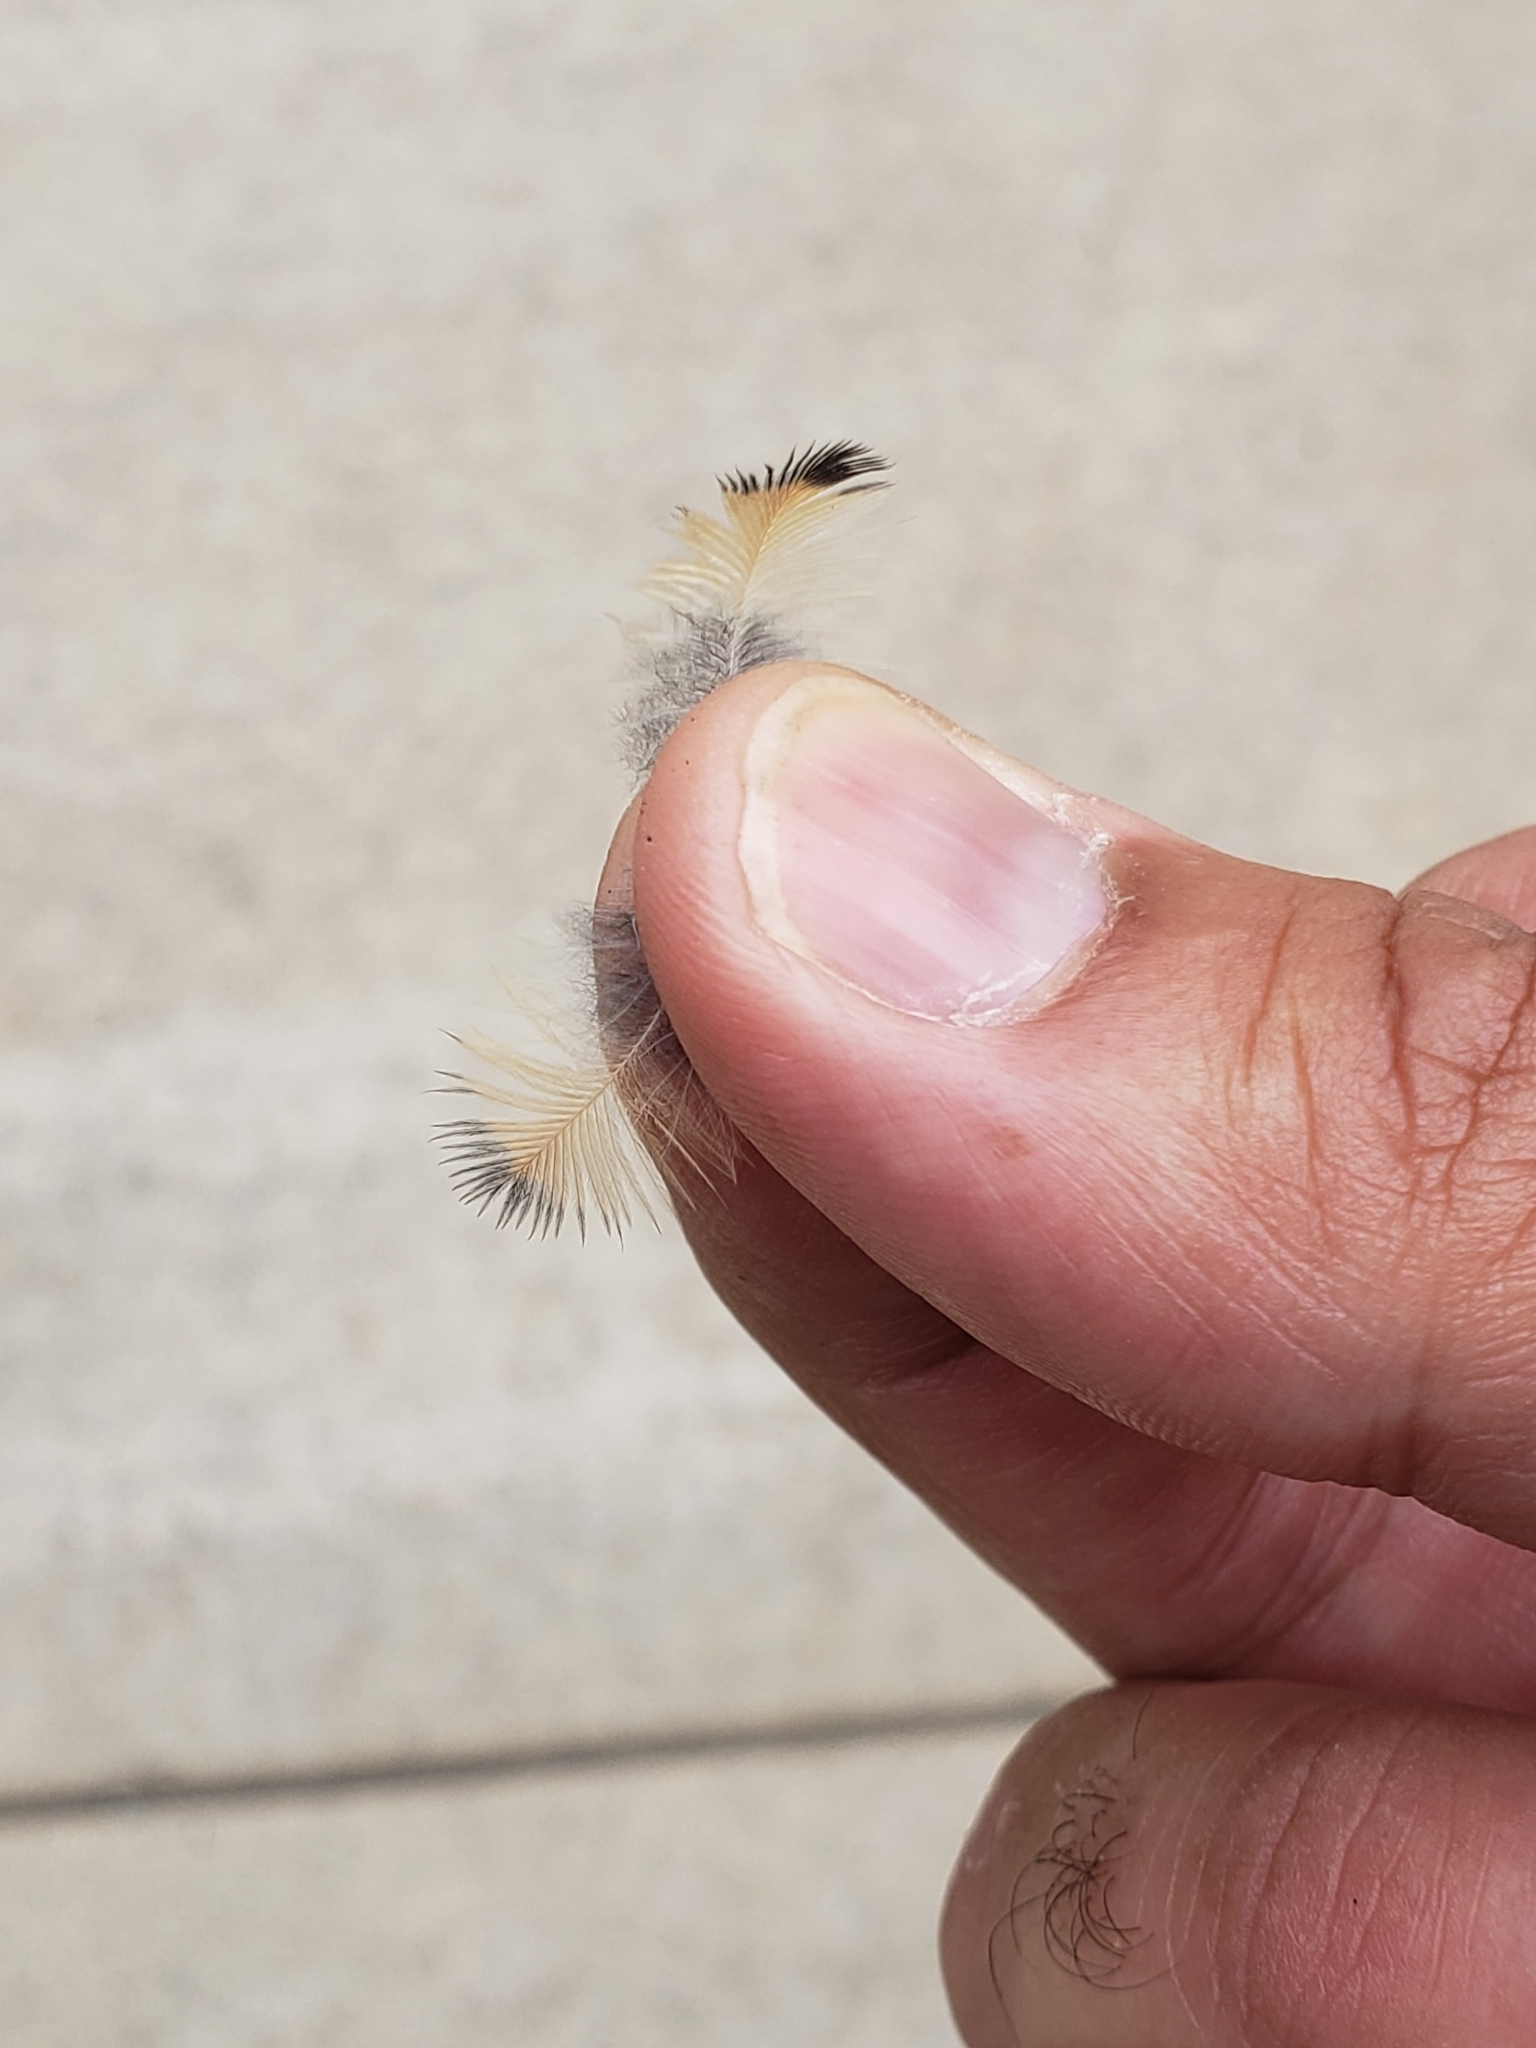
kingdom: Animalia
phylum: Chordata
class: Aves
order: Accipitriformes
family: Accipitridae
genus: Buteo
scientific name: Buteo jamaicensis
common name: Red-tailed hawk
